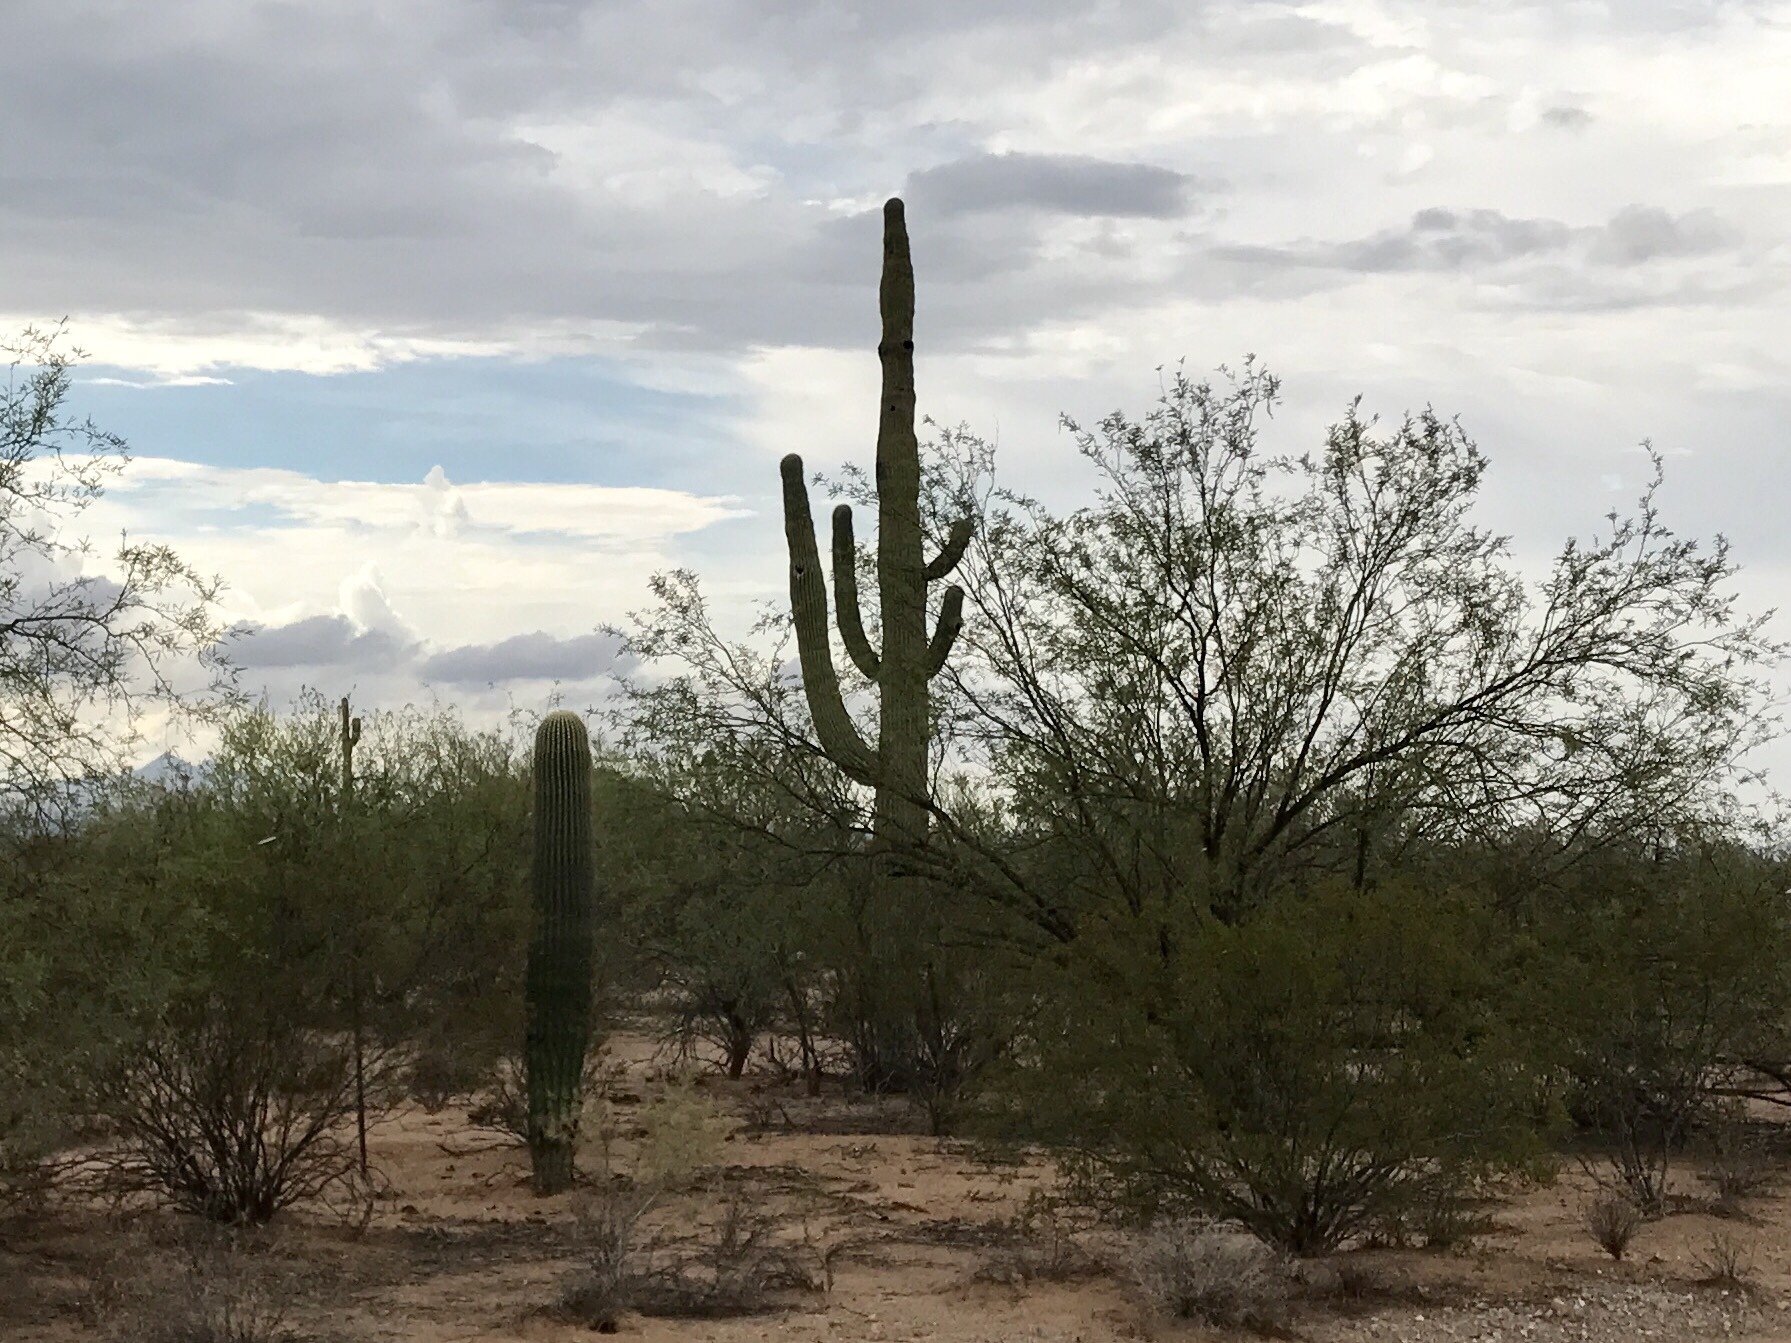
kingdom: Plantae
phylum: Tracheophyta
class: Magnoliopsida
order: Caryophyllales
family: Cactaceae
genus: Carnegiea
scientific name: Carnegiea gigantea
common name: Saguaro
